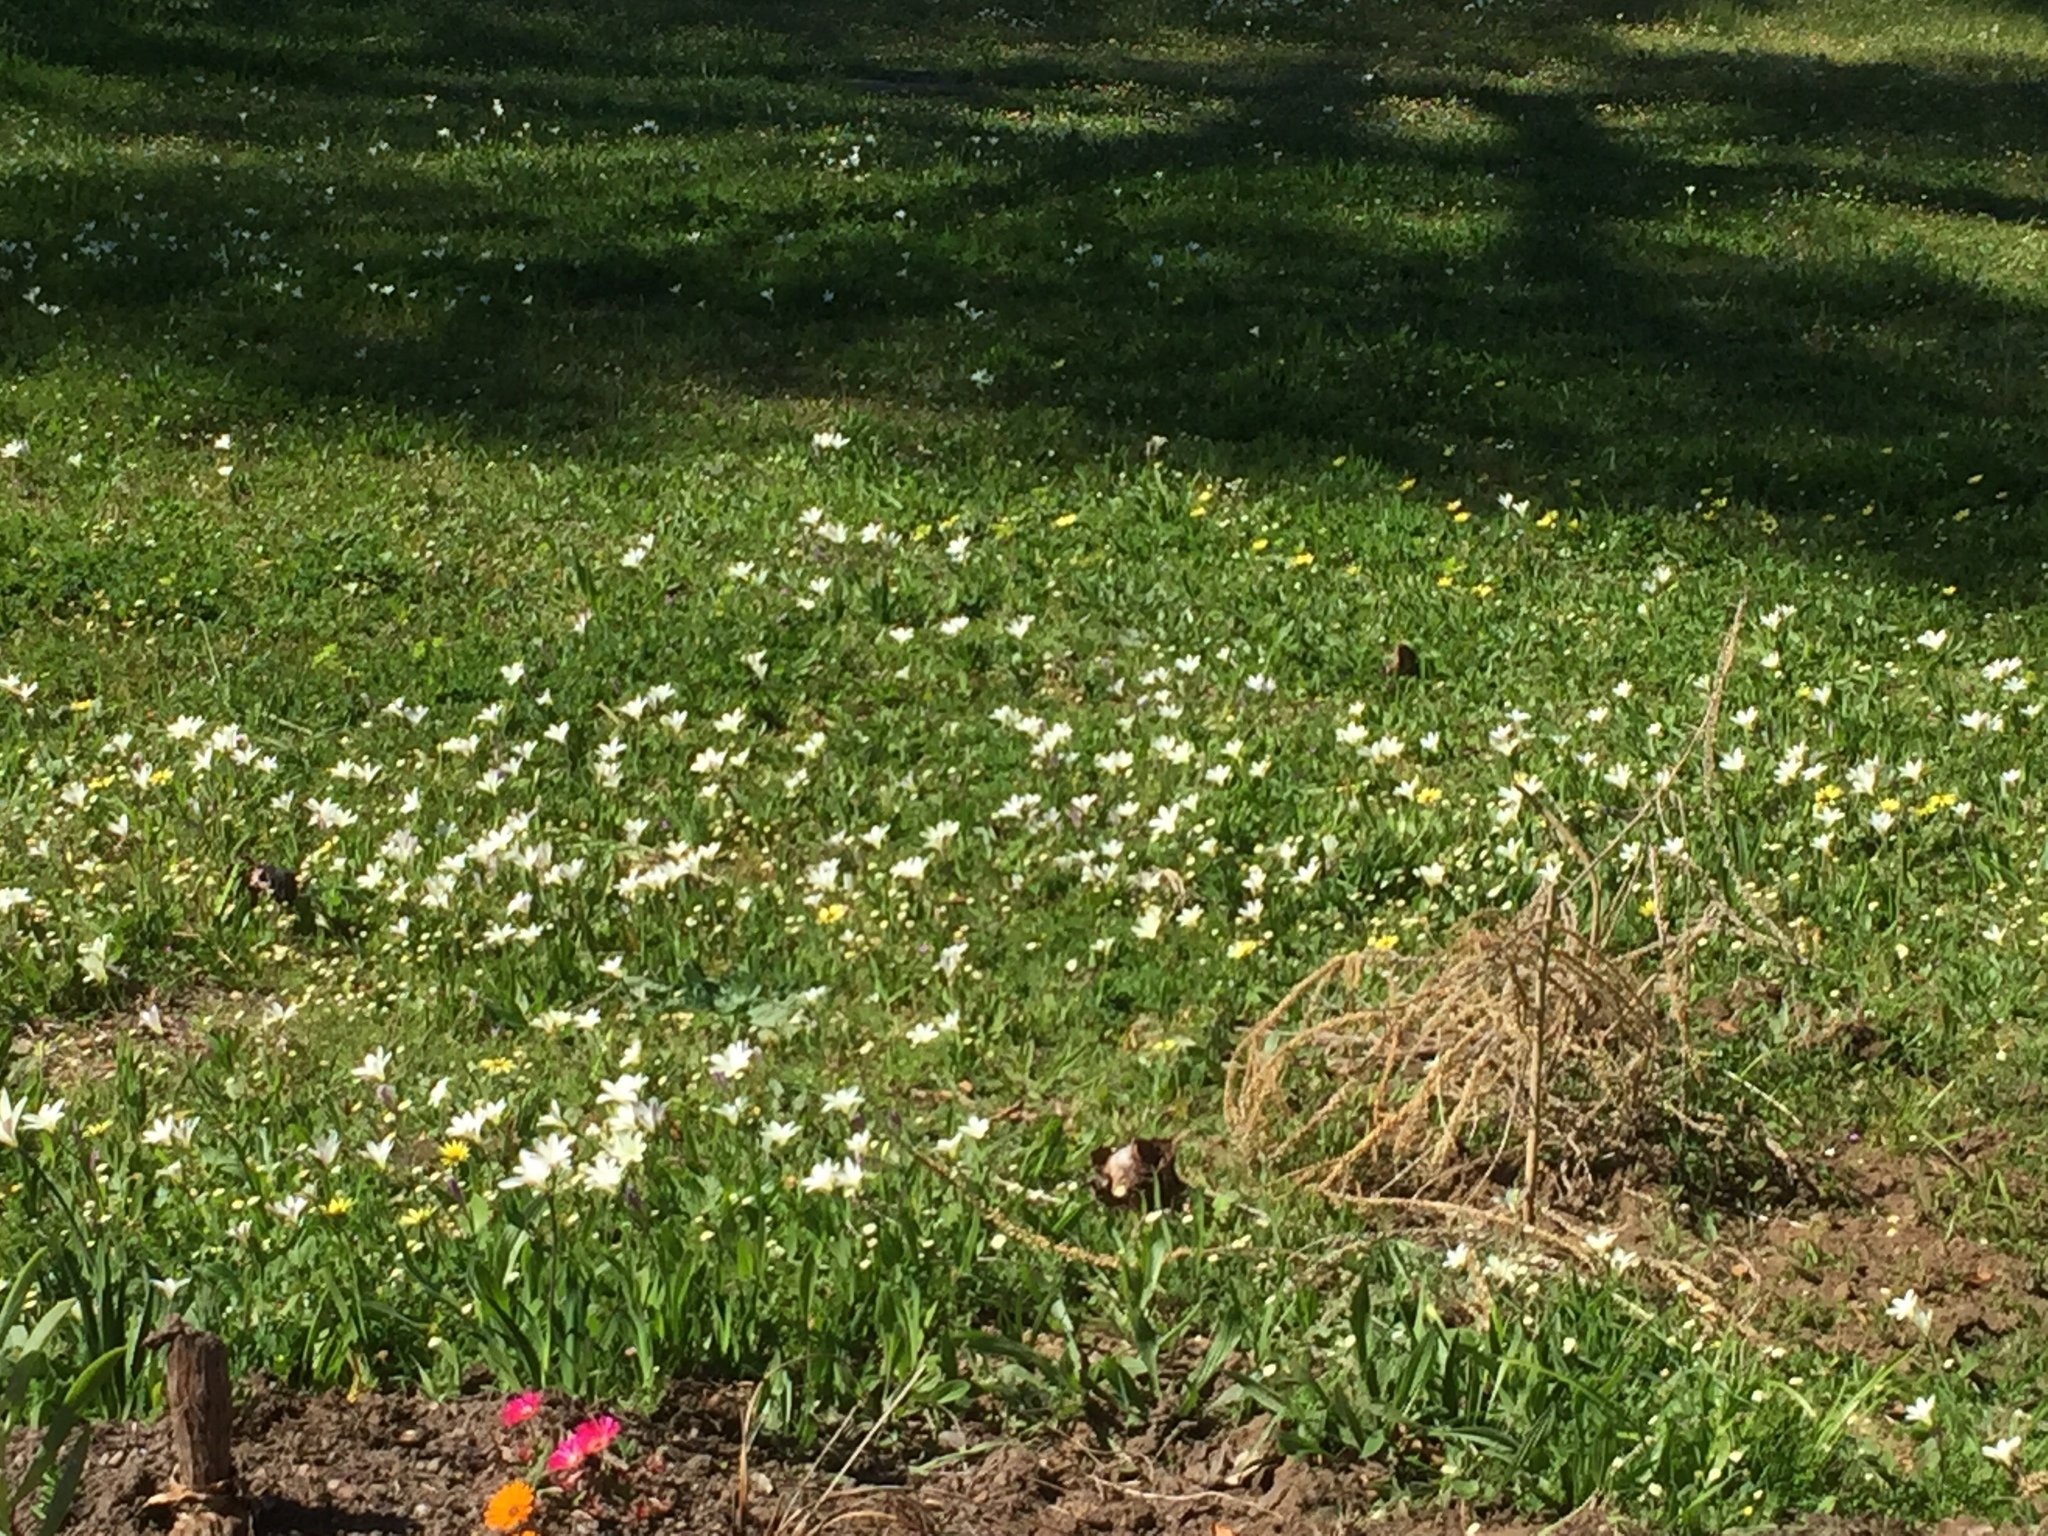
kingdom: Plantae
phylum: Tracheophyta
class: Liliopsida
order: Asparagales
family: Iridaceae
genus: Sparaxis
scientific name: Sparaxis bulbifera
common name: Harlequin-flower
